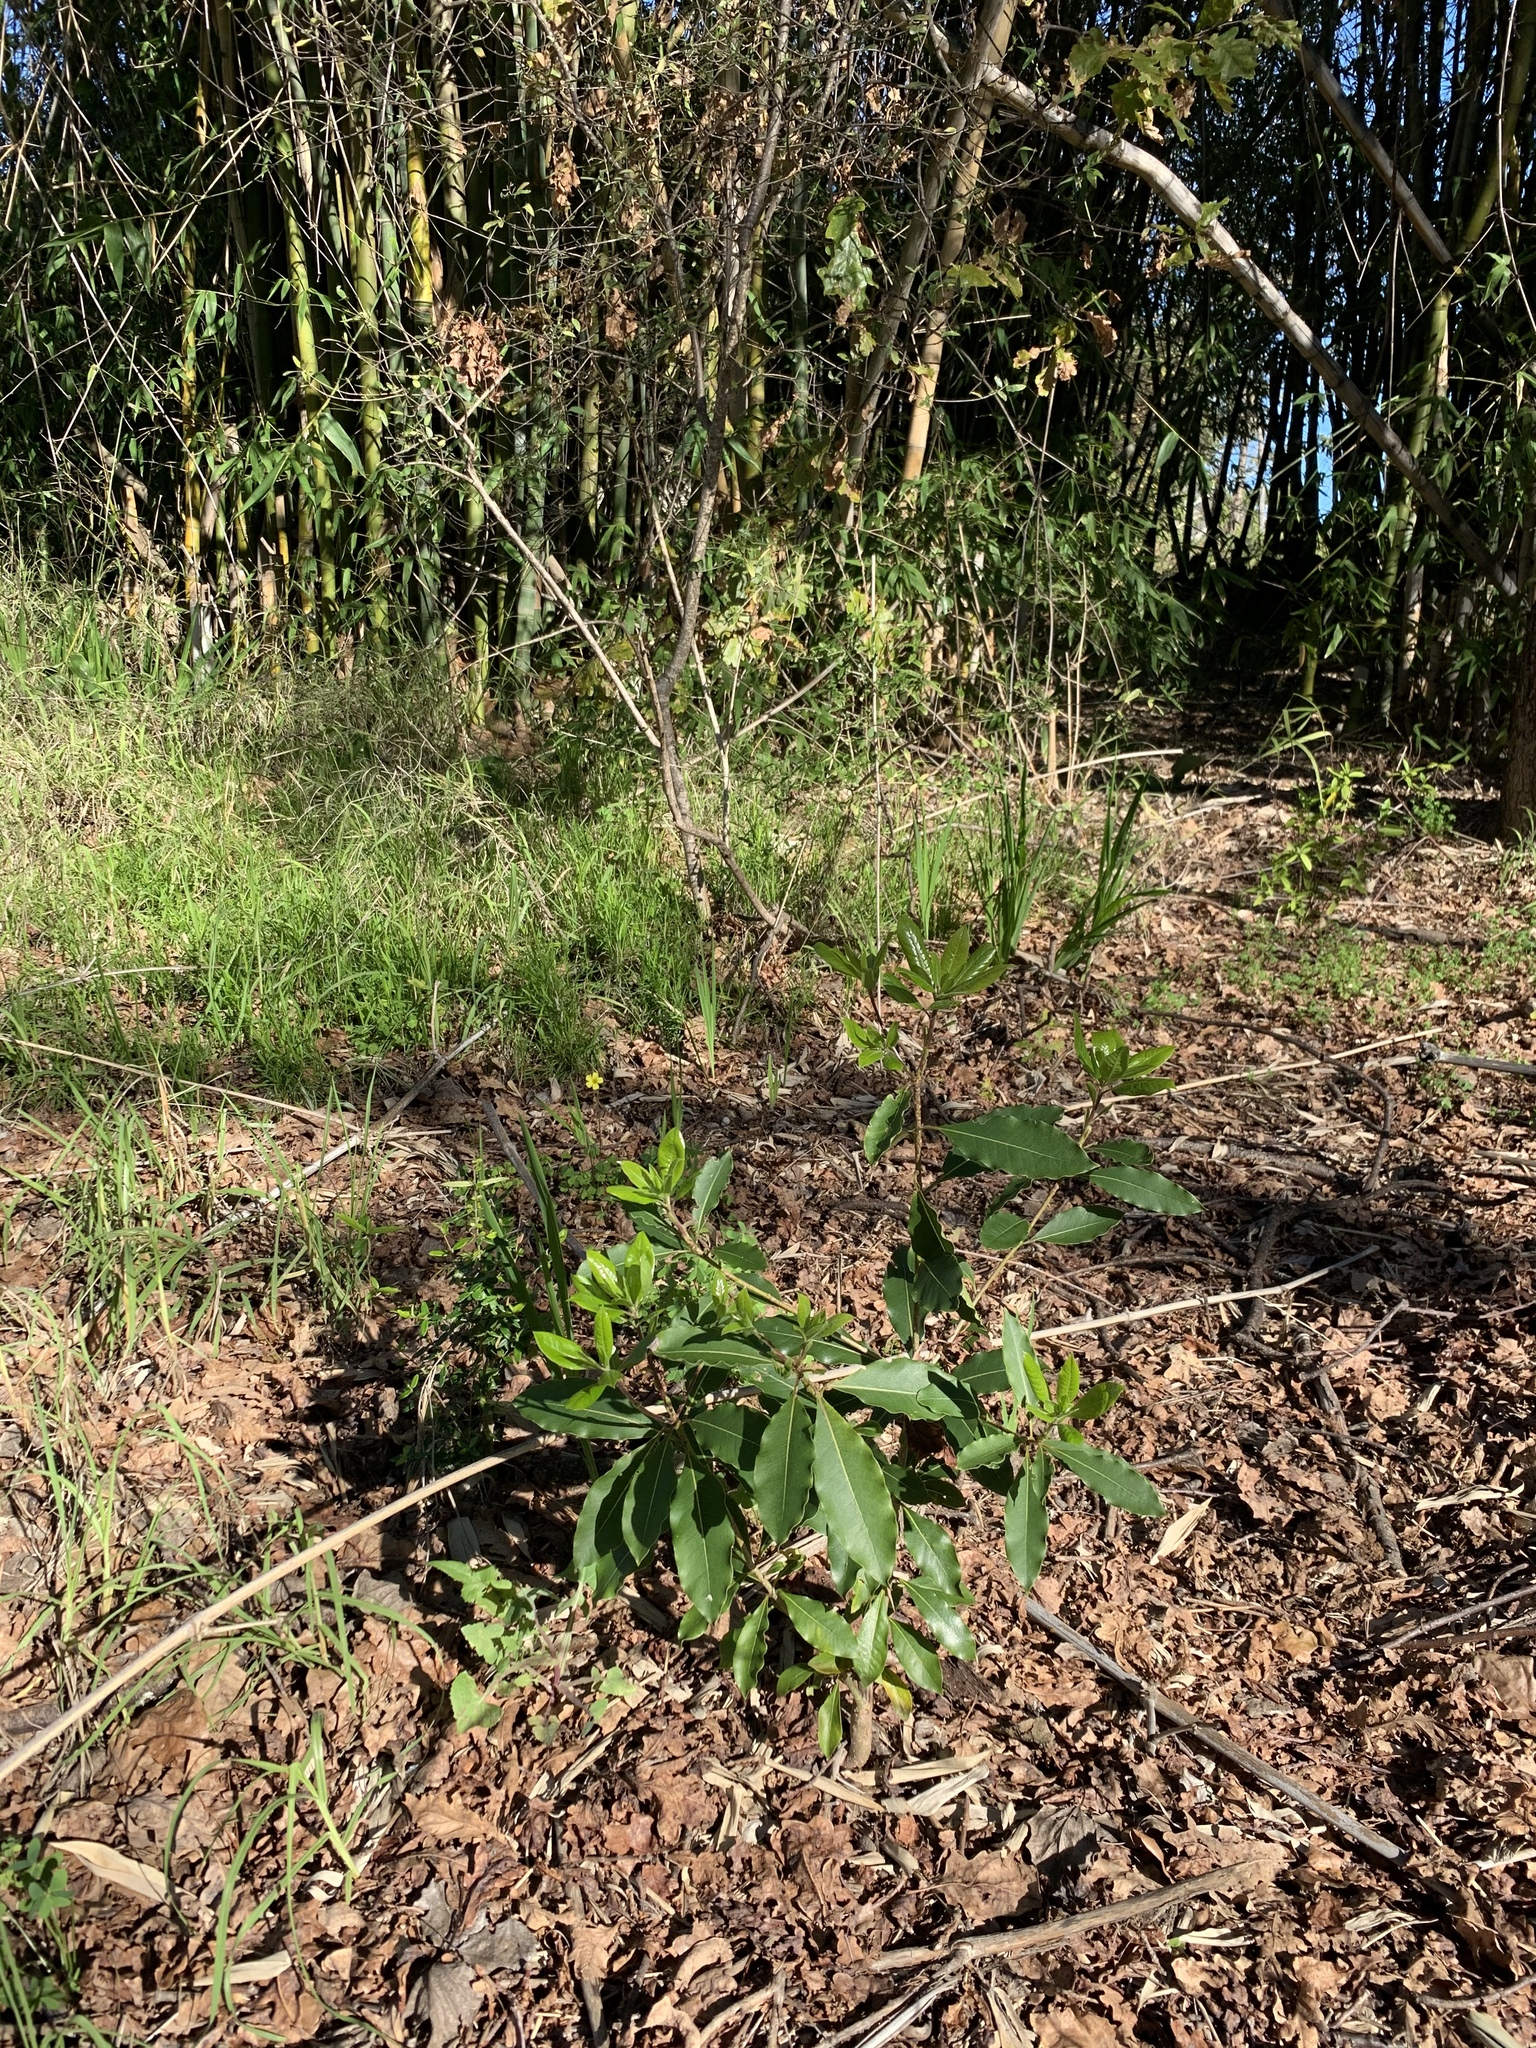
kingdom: Plantae
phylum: Tracheophyta
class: Magnoliopsida
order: Apiales
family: Pittosporaceae
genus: Pittosporum
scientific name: Pittosporum undulatum
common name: Australian cheesewood
